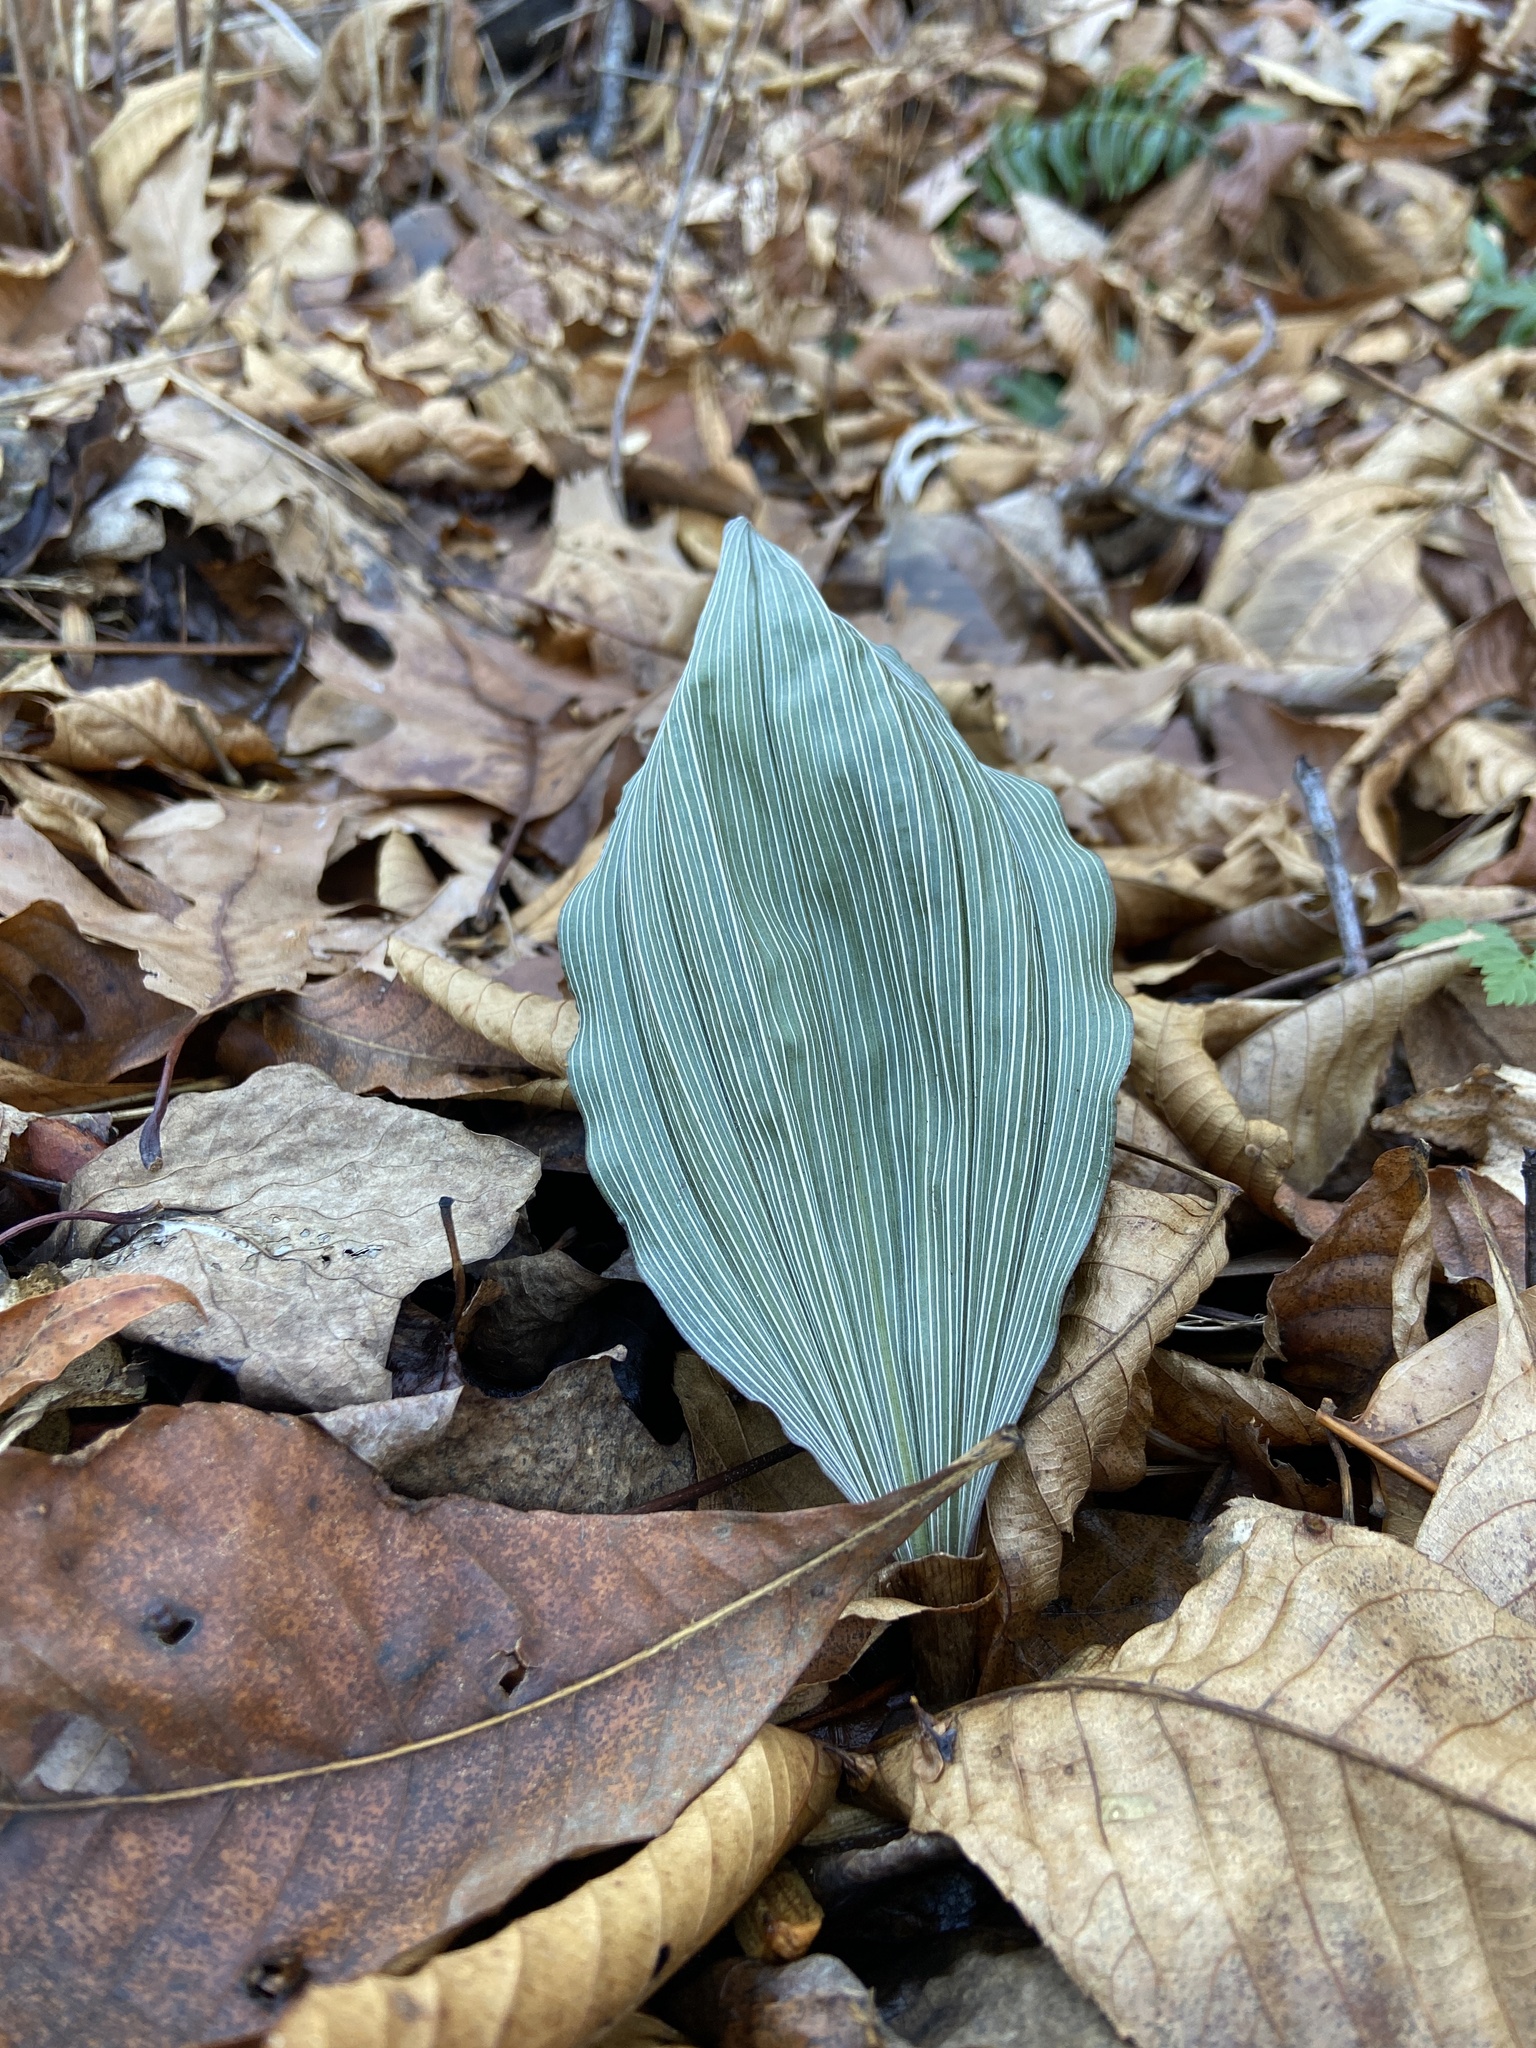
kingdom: Plantae
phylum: Tracheophyta
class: Liliopsida
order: Asparagales
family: Orchidaceae
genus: Aplectrum
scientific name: Aplectrum hyemale
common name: Adam-and-eve
